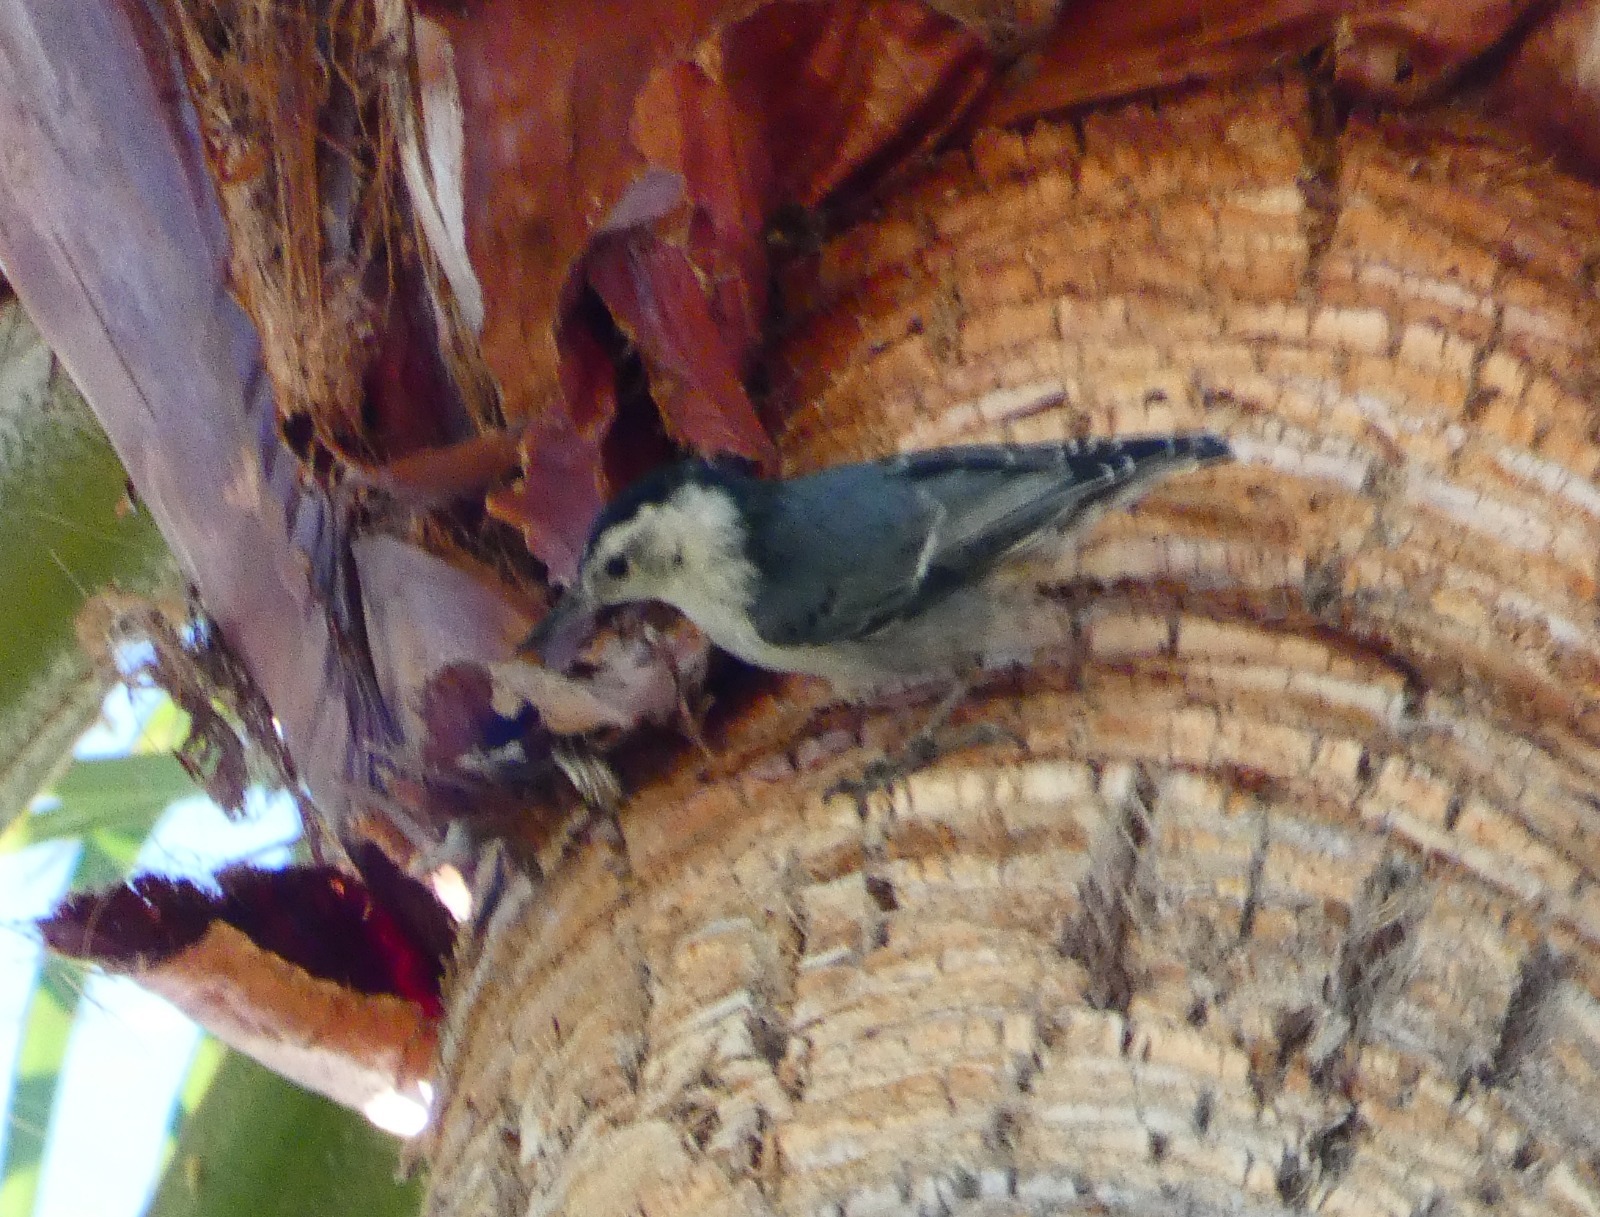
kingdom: Animalia
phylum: Chordata
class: Aves
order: Passeriformes
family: Sittidae
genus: Sitta
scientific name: Sitta carolinensis
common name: White-breasted nuthatch
